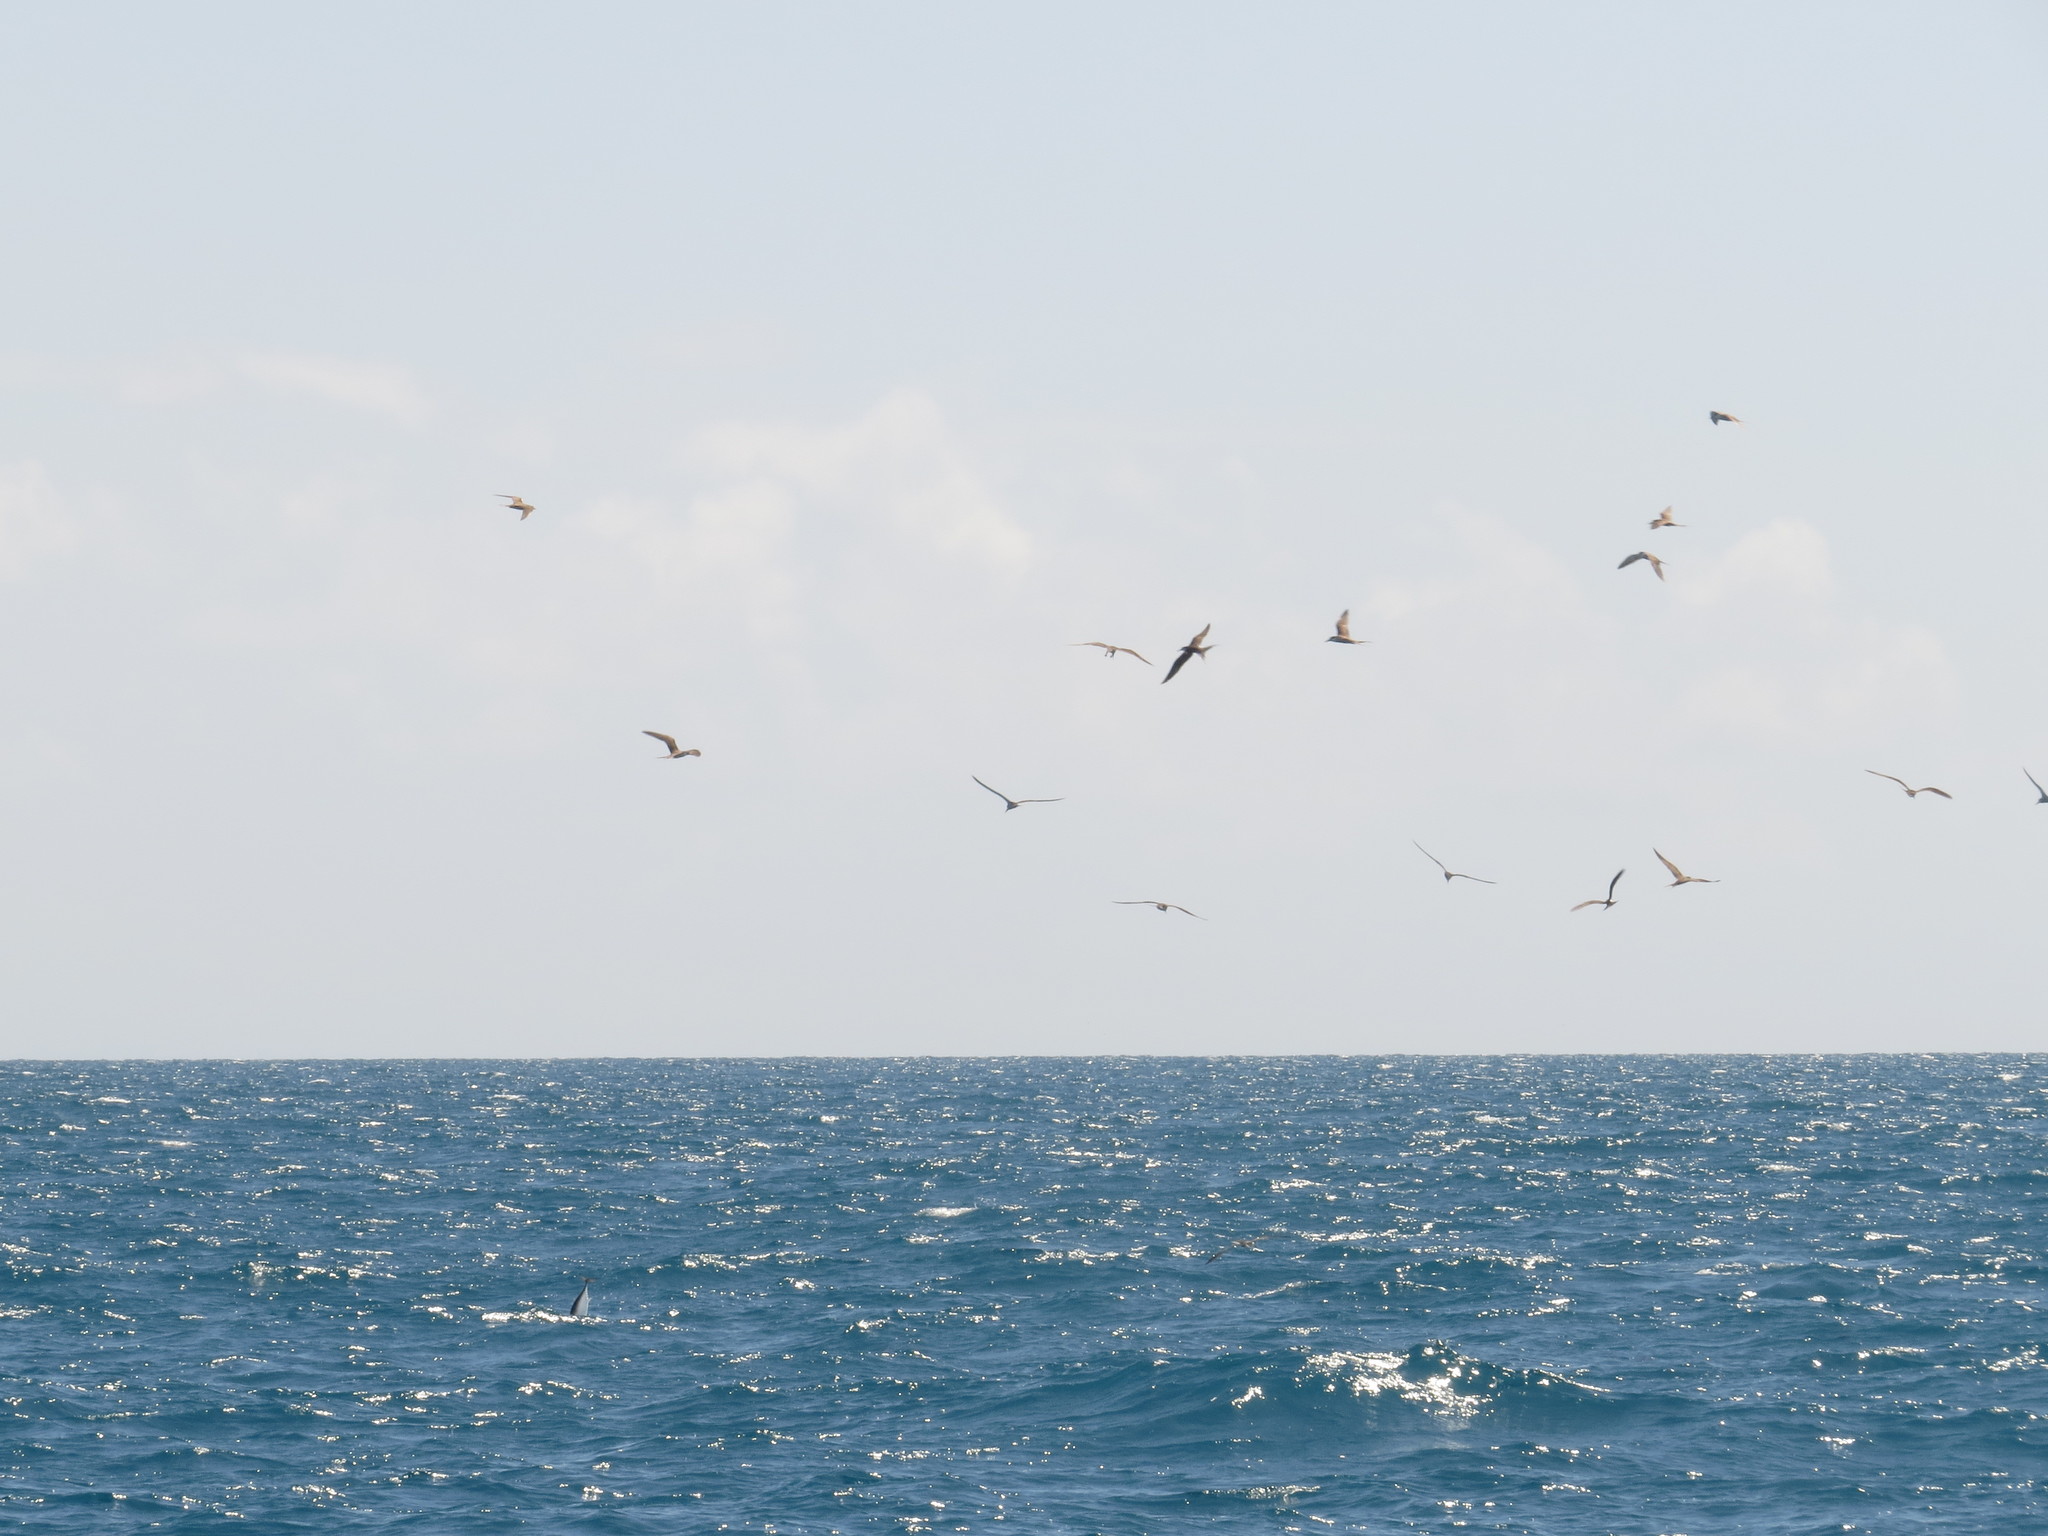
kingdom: Animalia
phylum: Chordata
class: Aves
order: Charadriiformes
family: Laridae
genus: Onychoprion
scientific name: Onychoprion fuscatus
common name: Sooty tern
